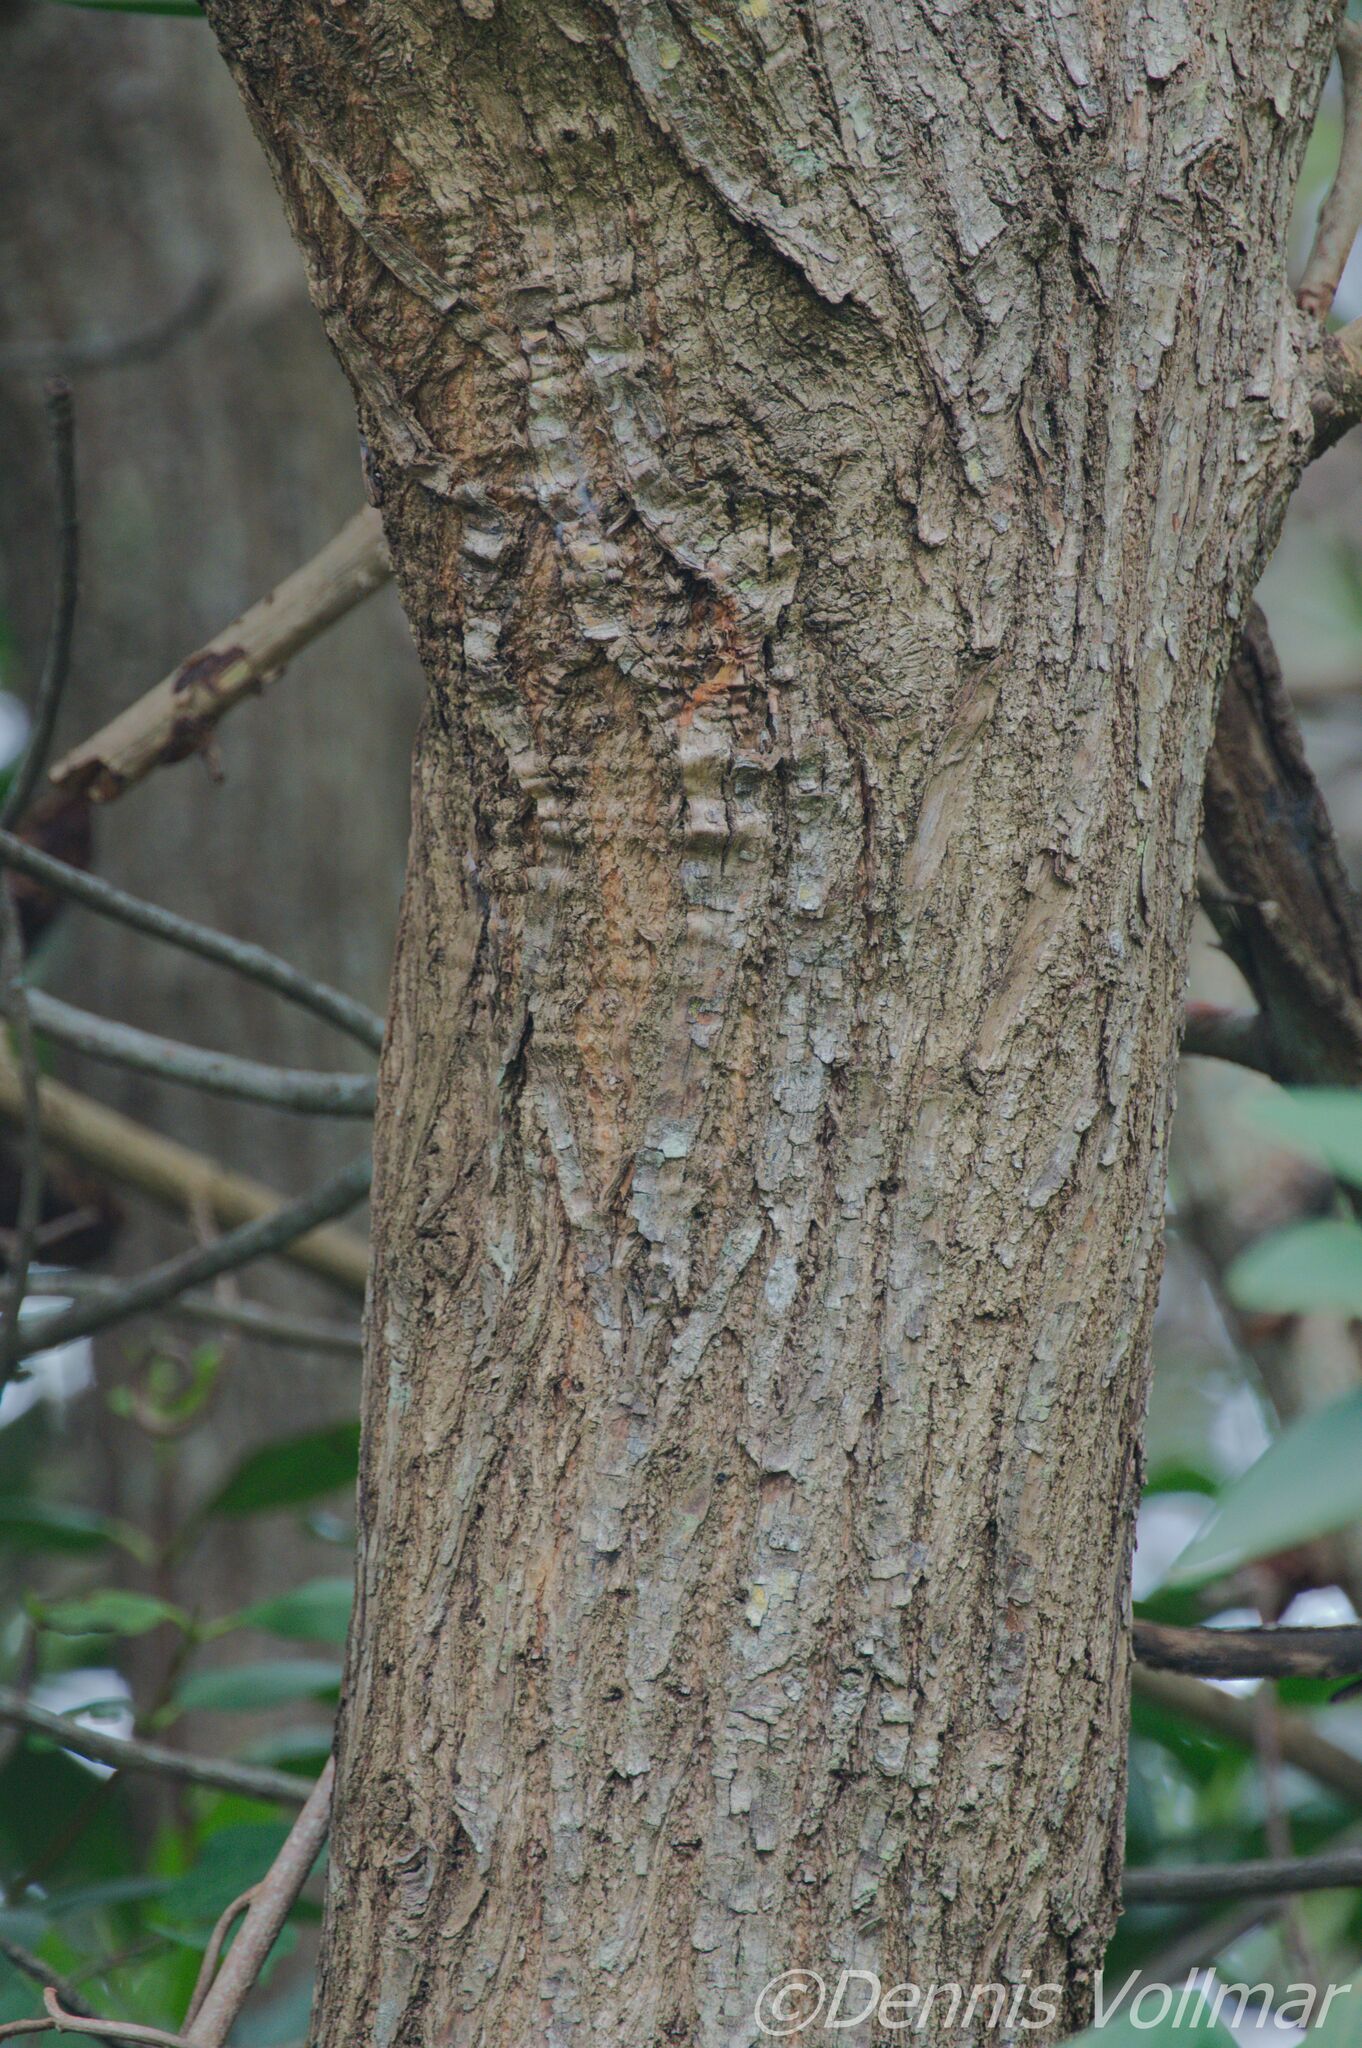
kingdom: Plantae
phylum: Tracheophyta
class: Magnoliopsida
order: Myrtales
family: Combretaceae
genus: Laguncularia
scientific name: Laguncularia racemosa
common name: White mangrove
